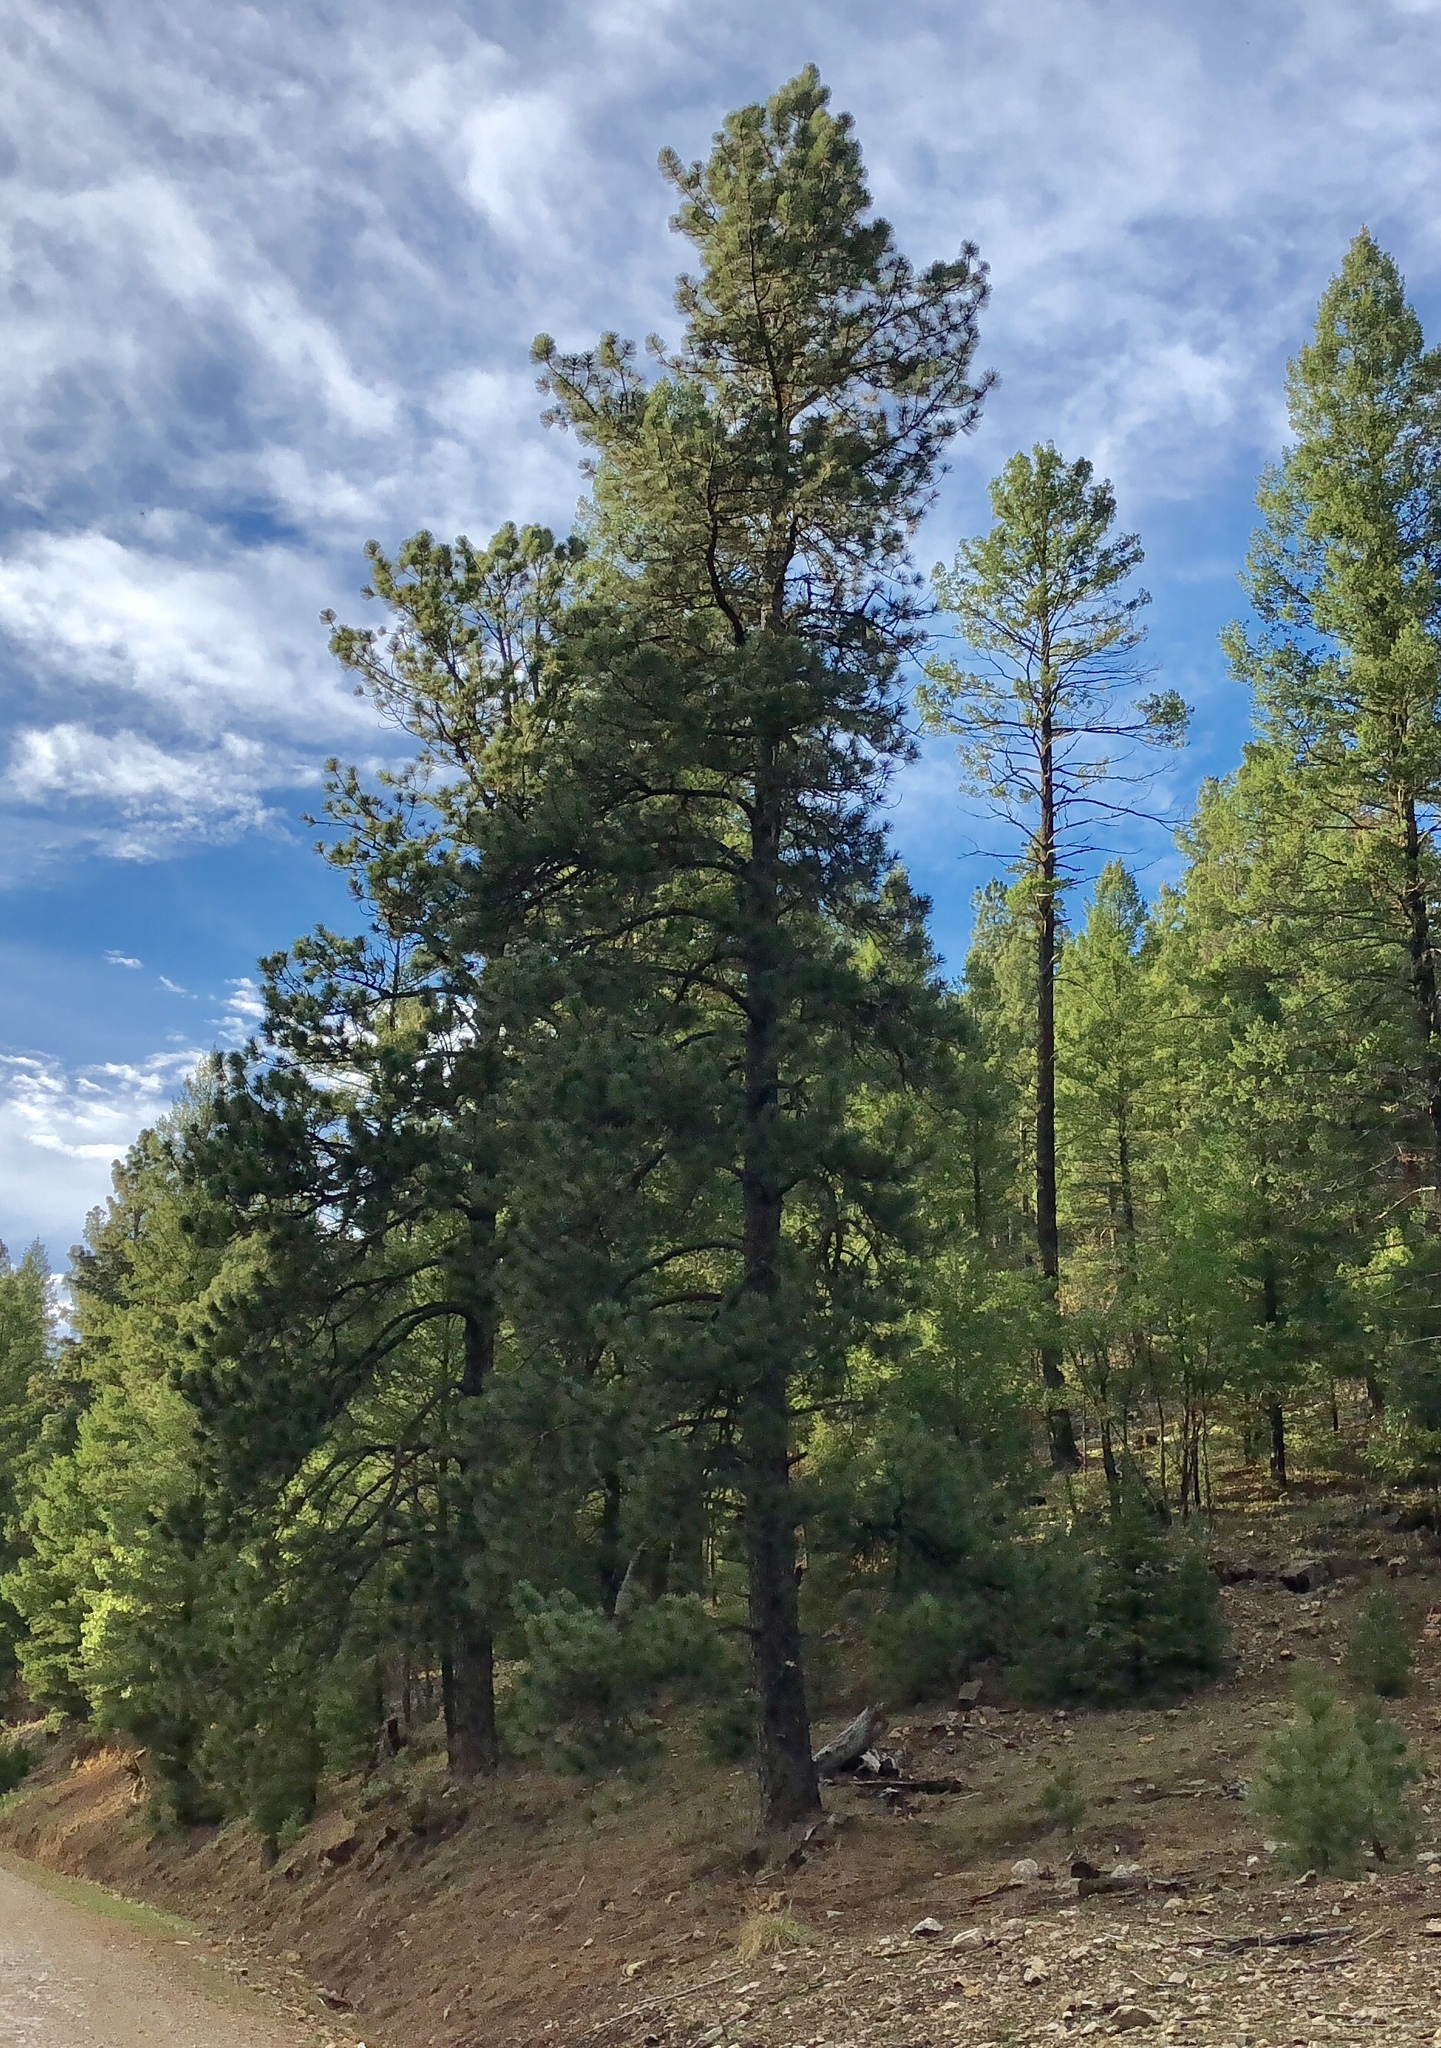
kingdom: Plantae
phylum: Tracheophyta
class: Pinopsida
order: Pinales
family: Pinaceae
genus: Pinus
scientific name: Pinus ponderosa
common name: Western yellow-pine
